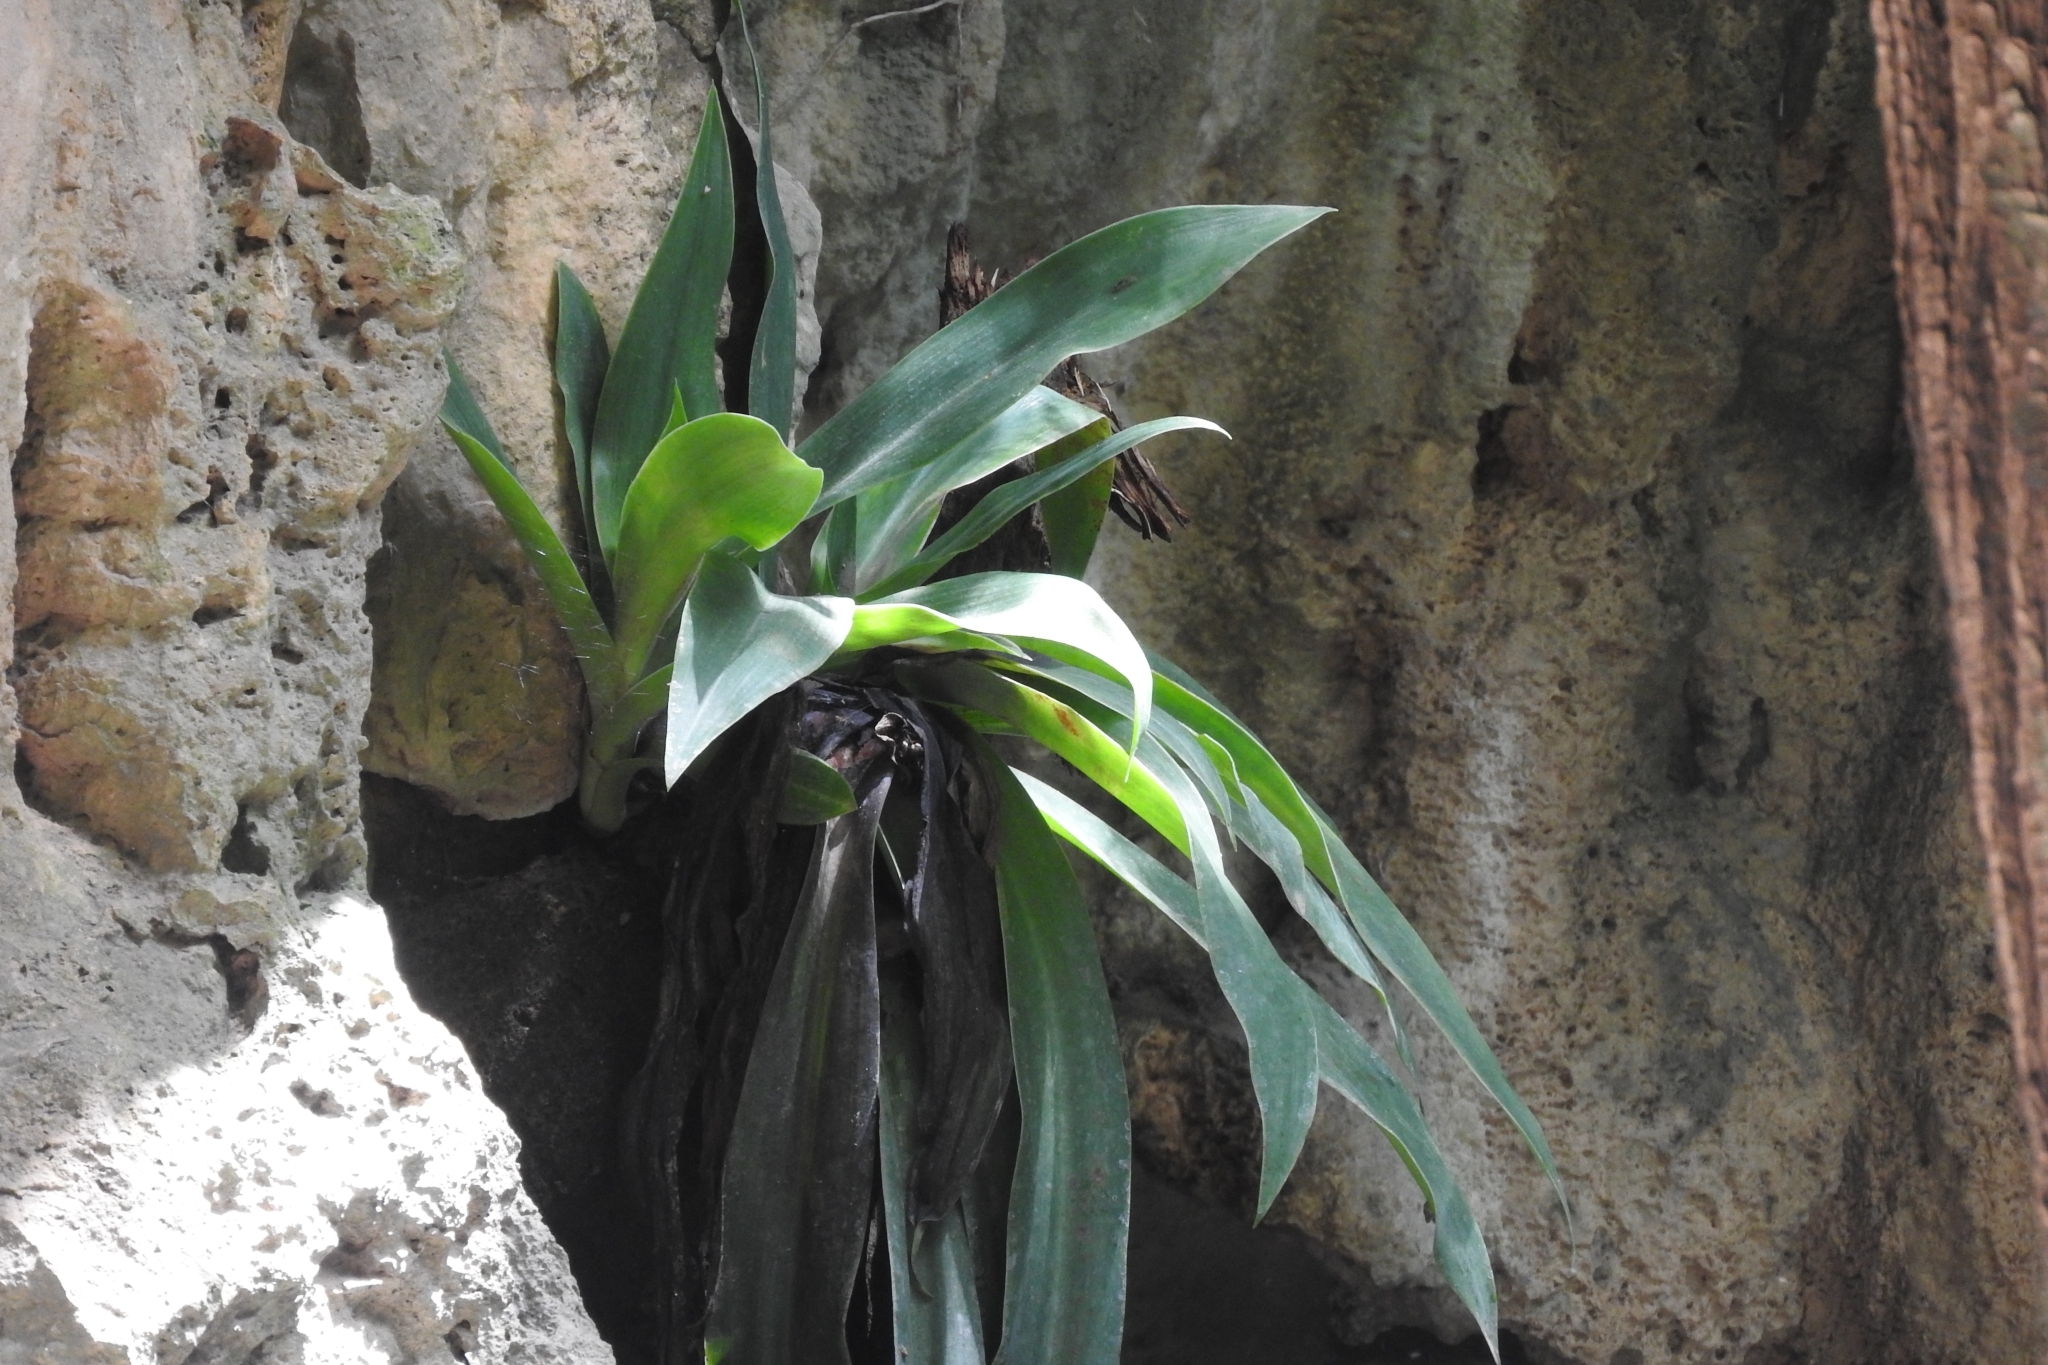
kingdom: Plantae
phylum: Tracheophyta
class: Liliopsida
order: Commelinales
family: Commelinaceae
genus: Callisia
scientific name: Callisia fragrans
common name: Basketplant
